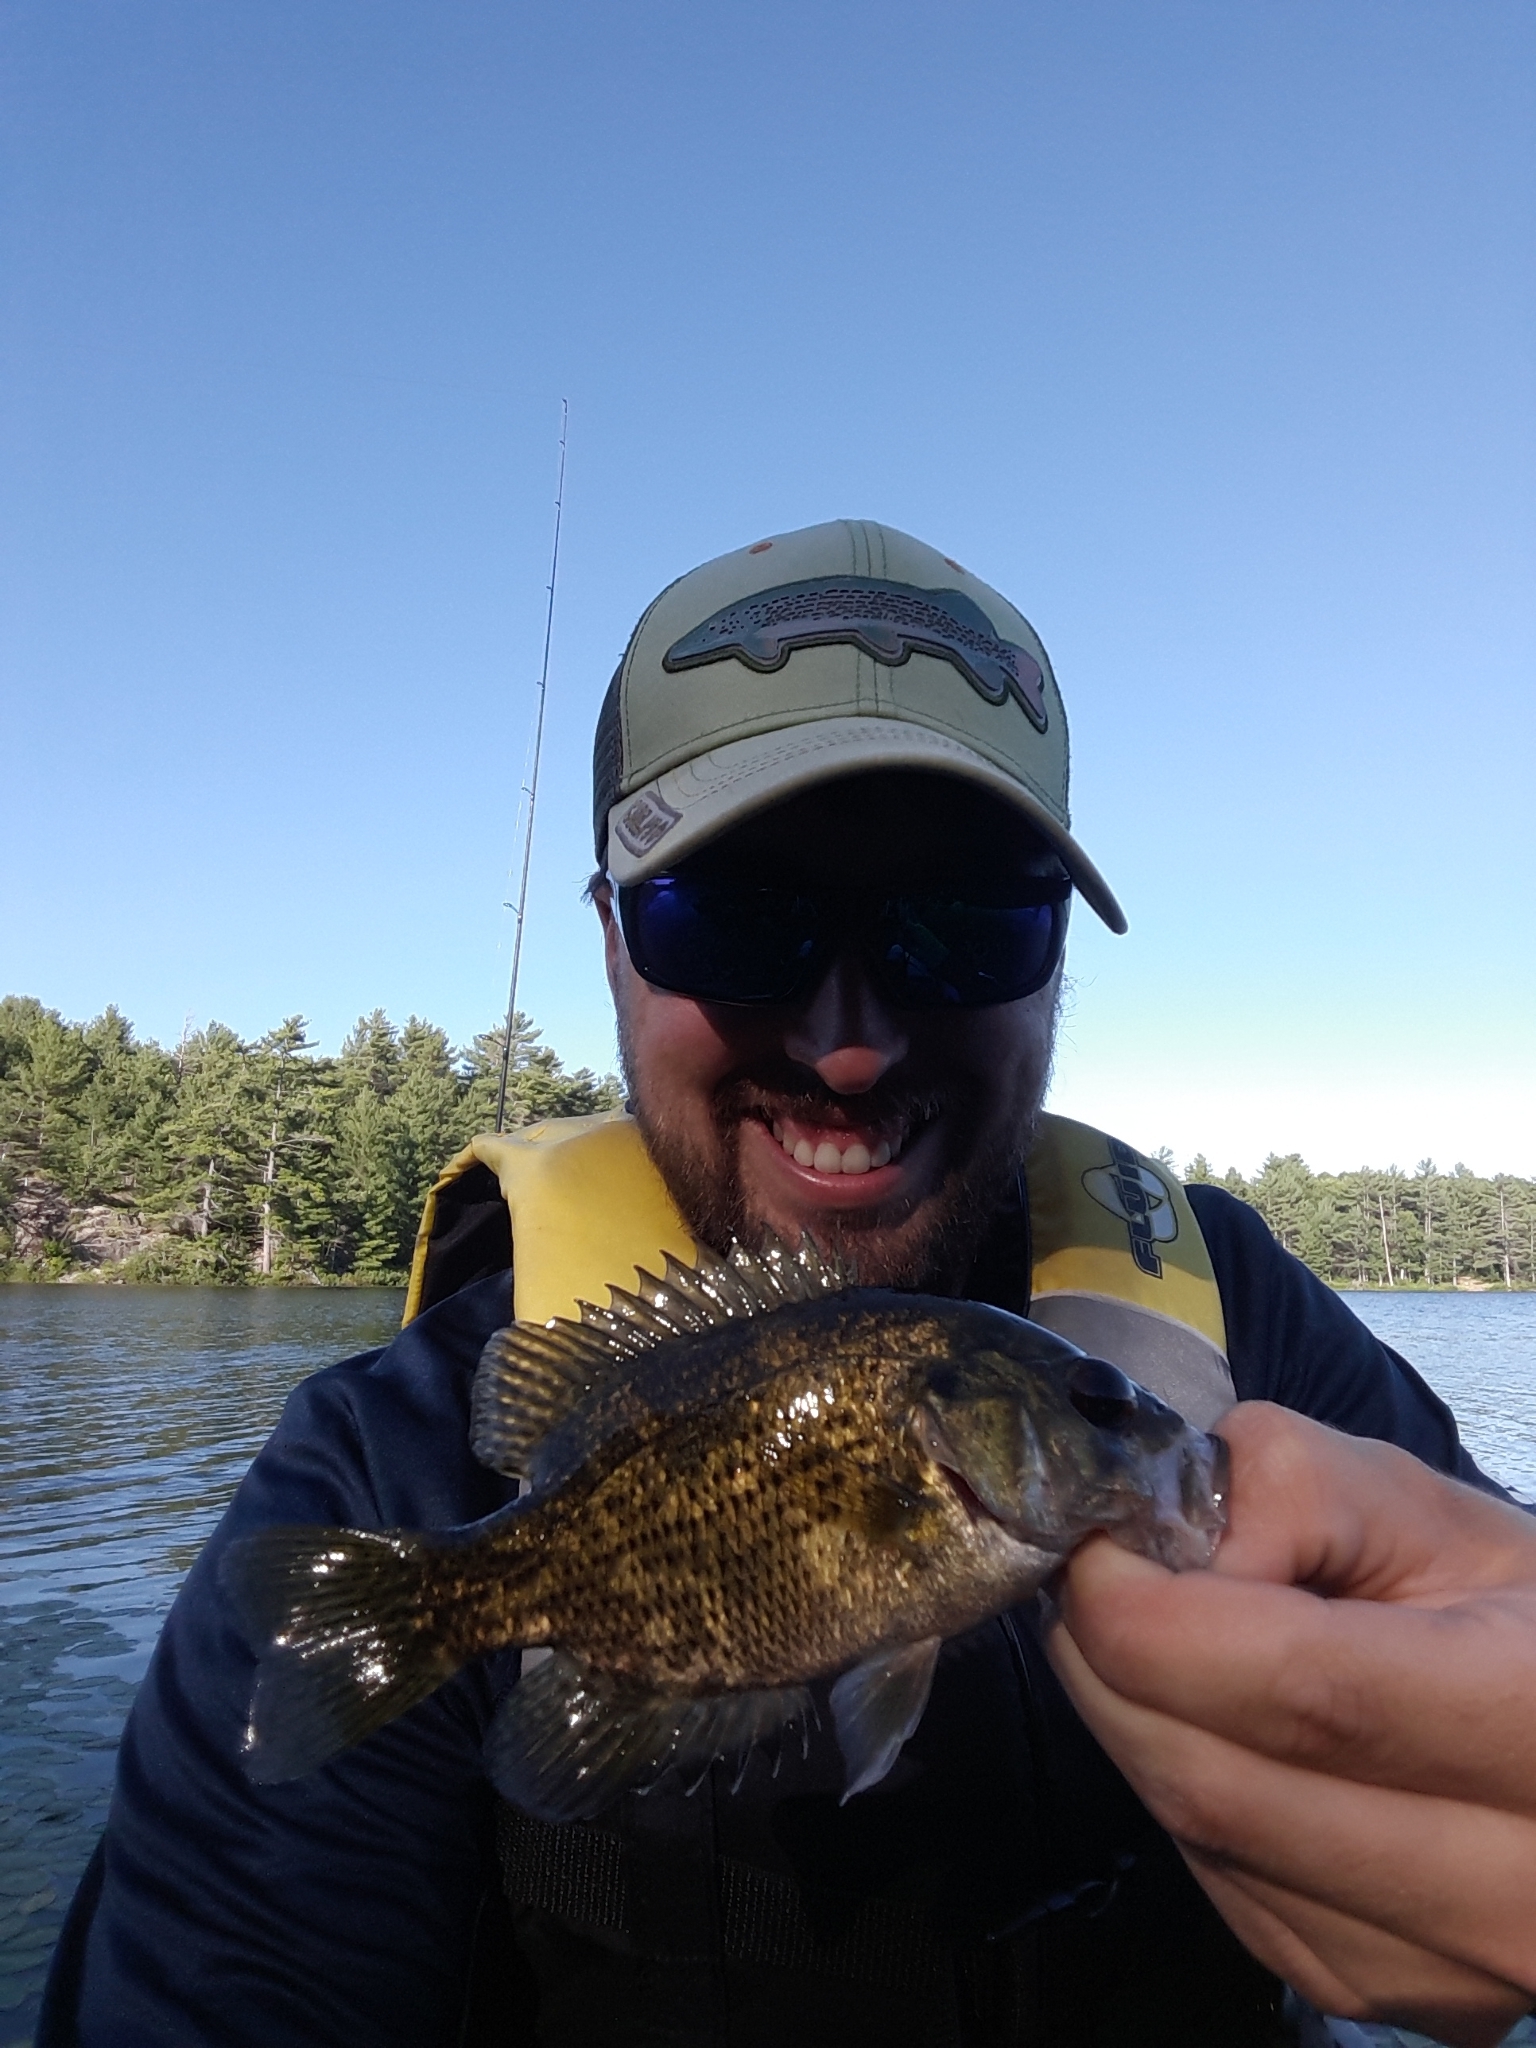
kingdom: Animalia
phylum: Chordata
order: Perciformes
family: Centrarchidae
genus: Ambloplites
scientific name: Ambloplites rupestris
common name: Rock bass
